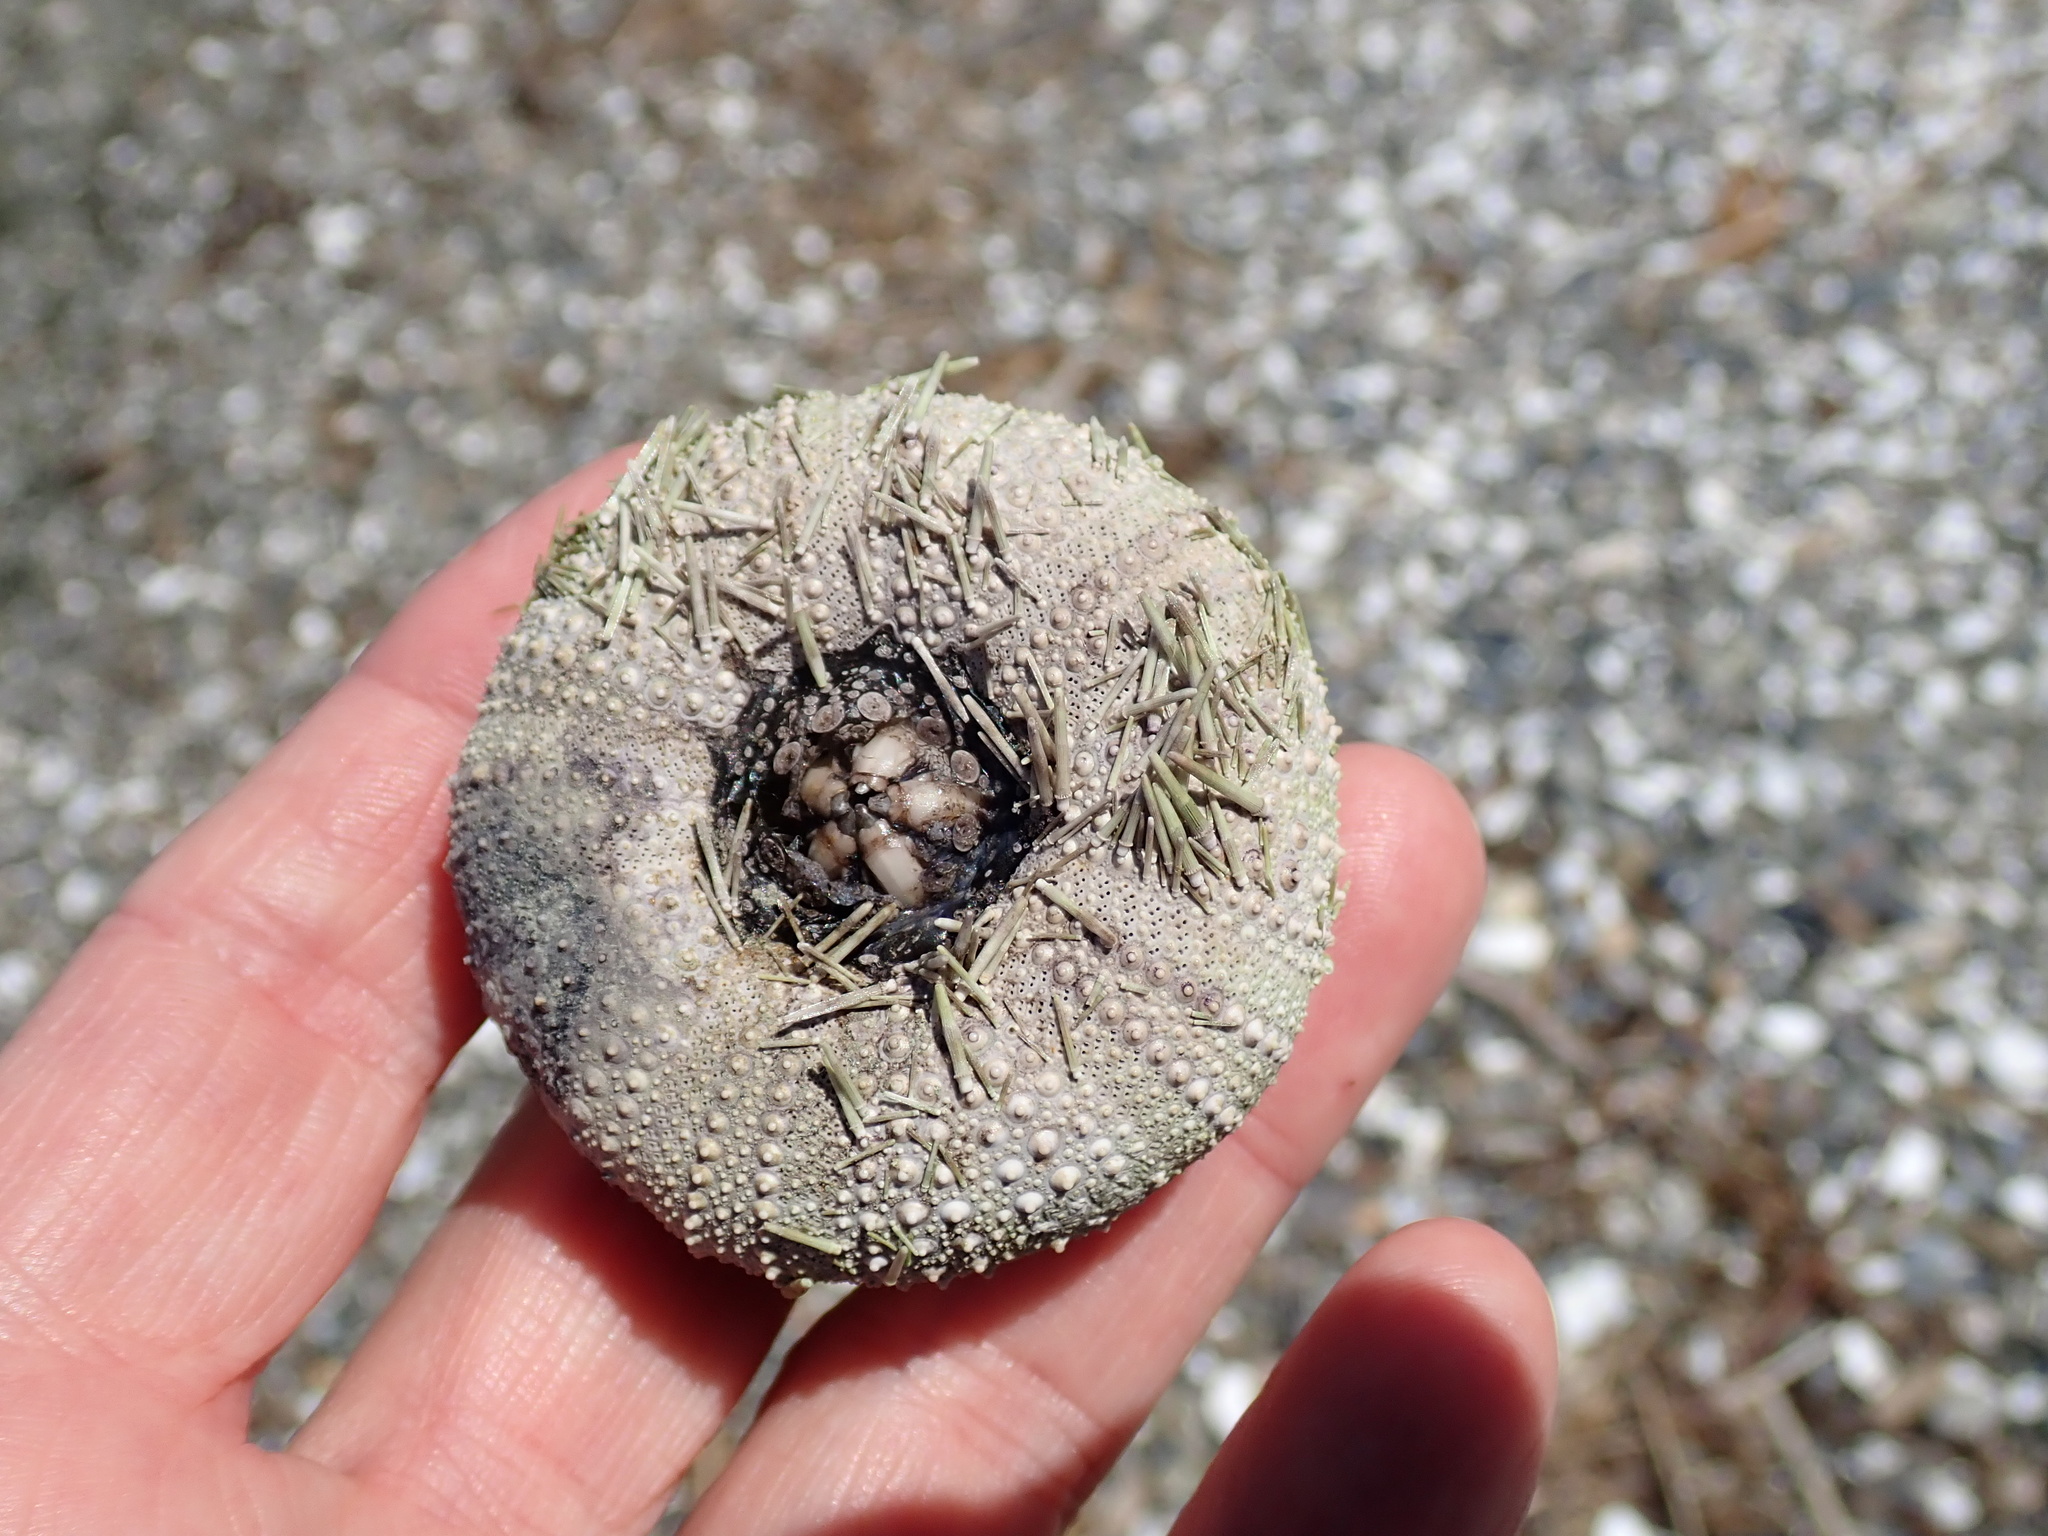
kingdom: Animalia
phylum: Echinodermata
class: Echinoidea
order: Camarodonta
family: Strongylocentrotidae
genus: Strongylocentrotus
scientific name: Strongylocentrotus droebachiensis
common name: Northern sea urchin
